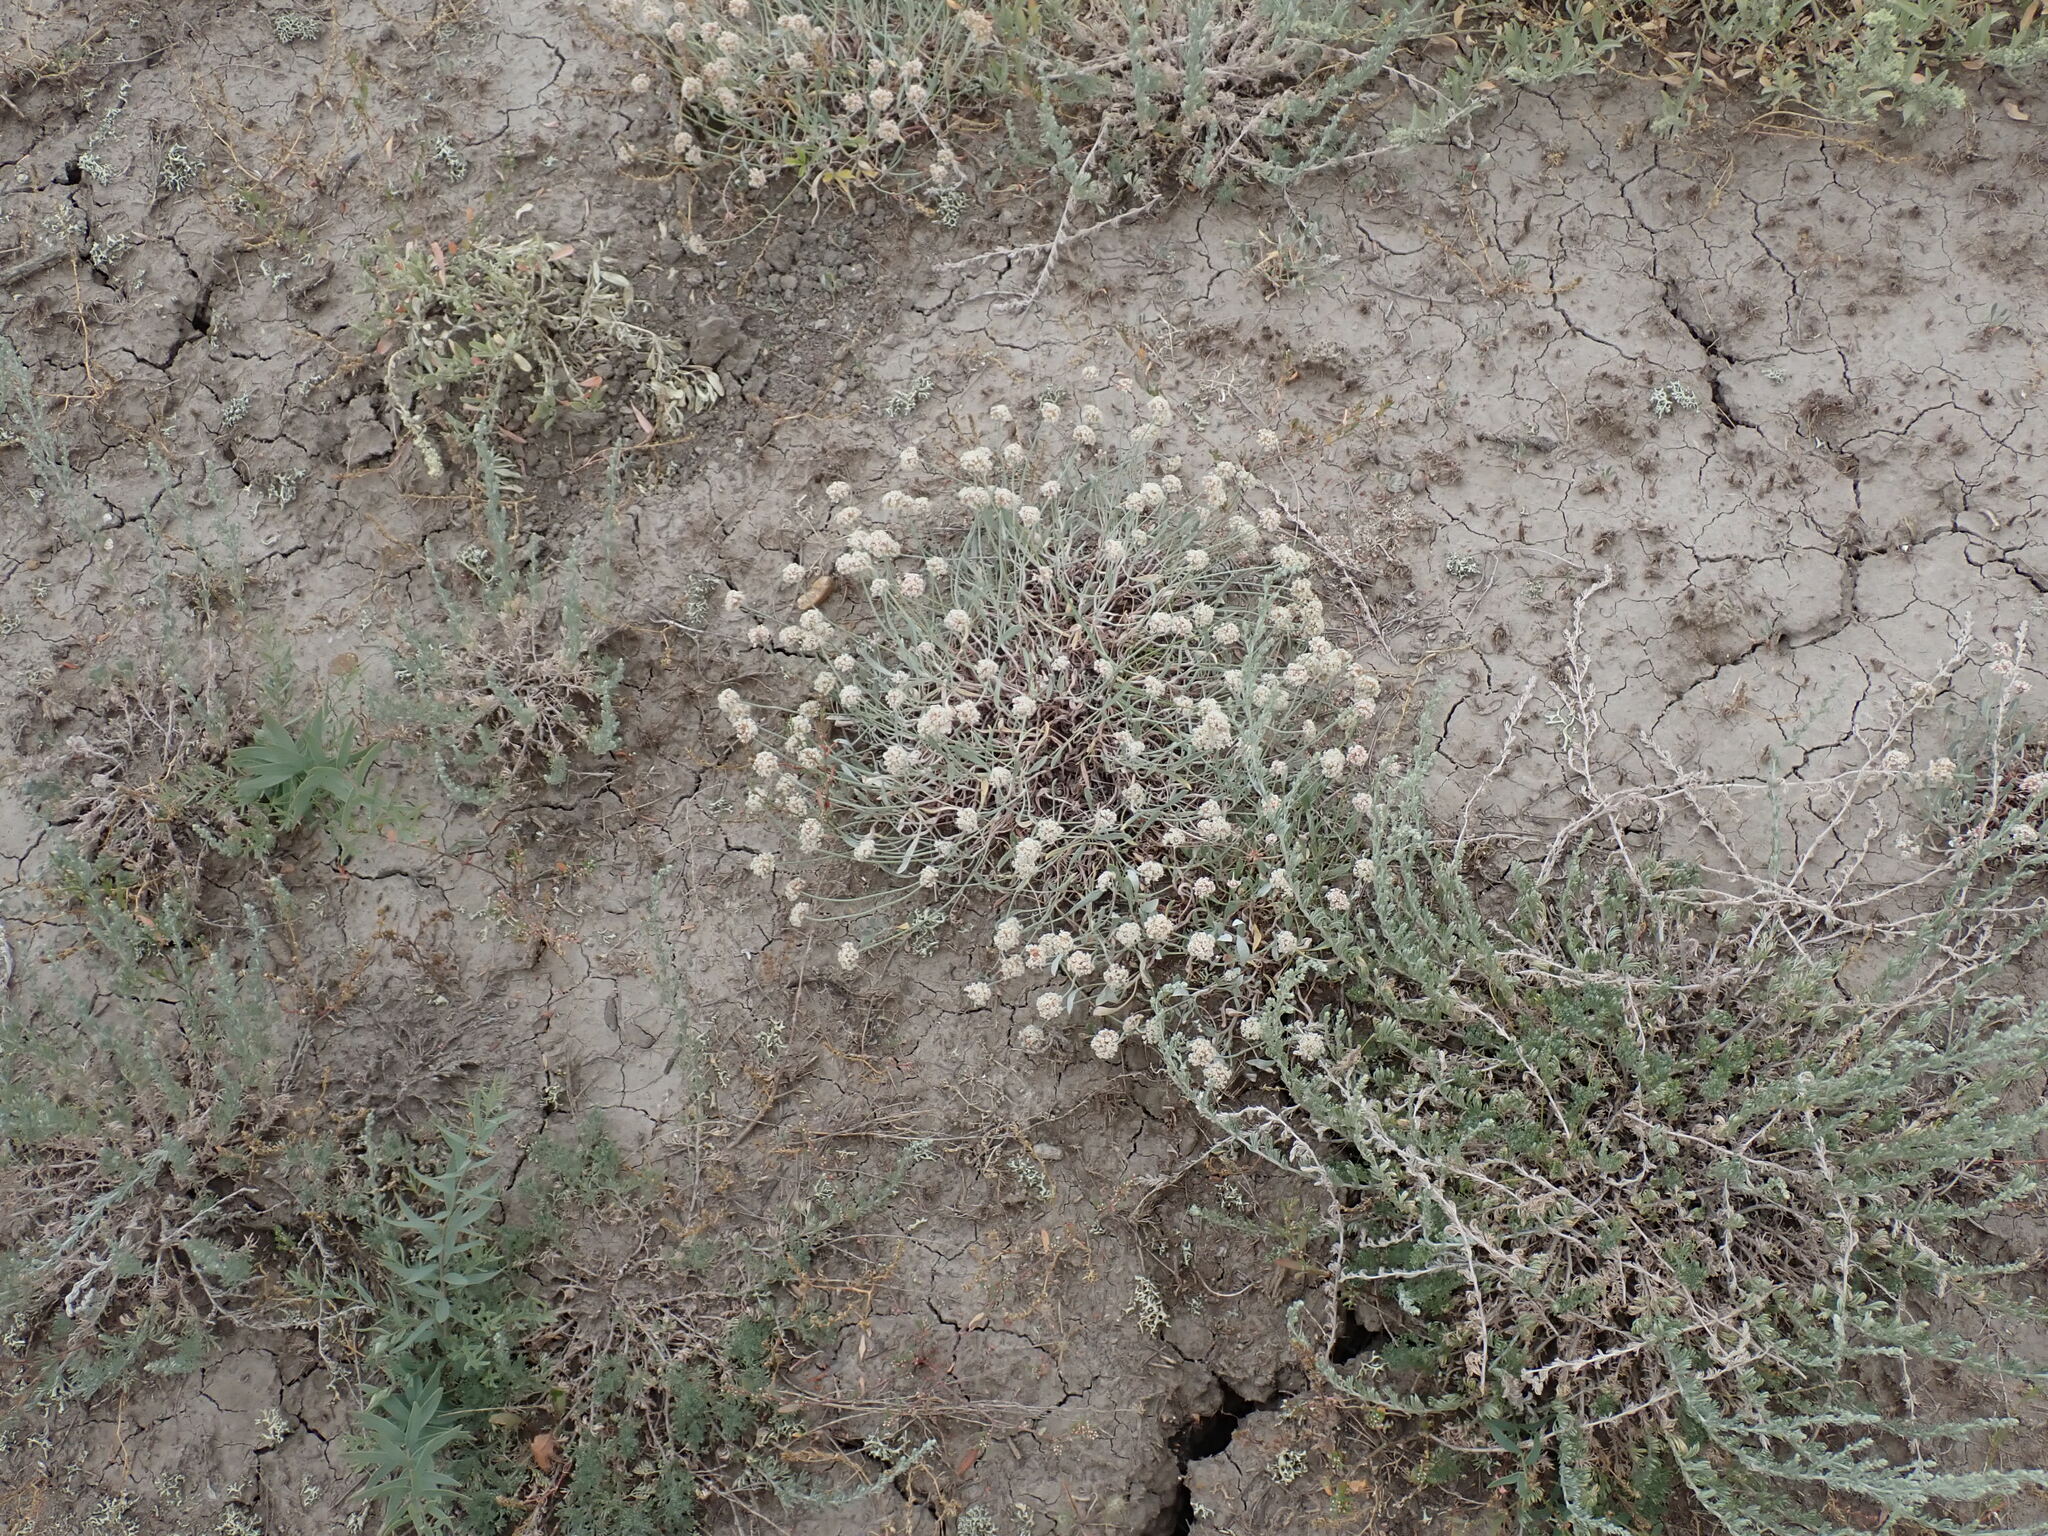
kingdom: Plantae
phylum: Tracheophyta
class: Magnoliopsida
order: Caryophyllales
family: Polygonaceae
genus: Eriogonum
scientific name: Eriogonum pauciflorum
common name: Few-flower wild buckwheat
